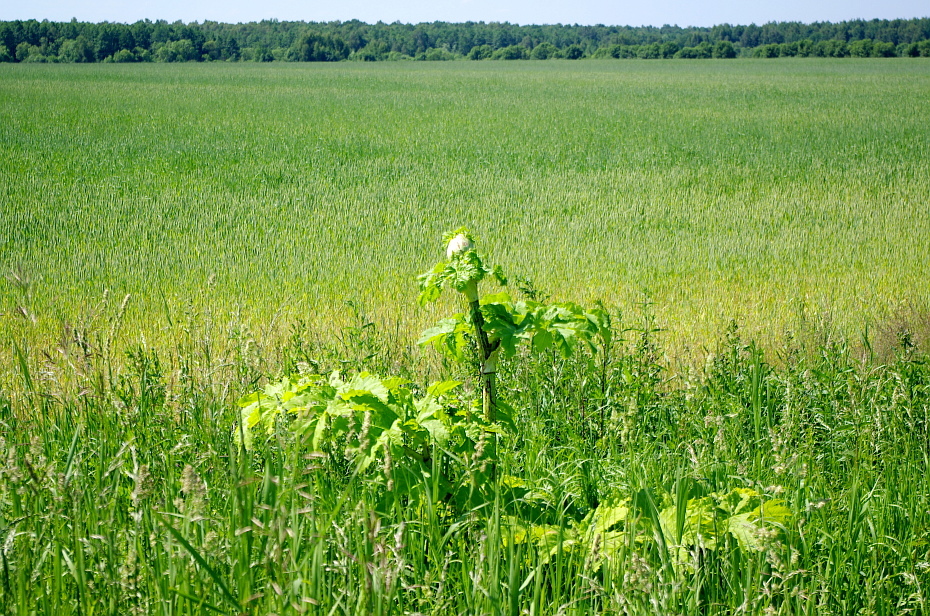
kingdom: Plantae
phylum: Tracheophyta
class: Magnoliopsida
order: Apiales
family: Apiaceae
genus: Heracleum
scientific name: Heracleum sosnowskyi
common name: Sosnowsky's hogweed
